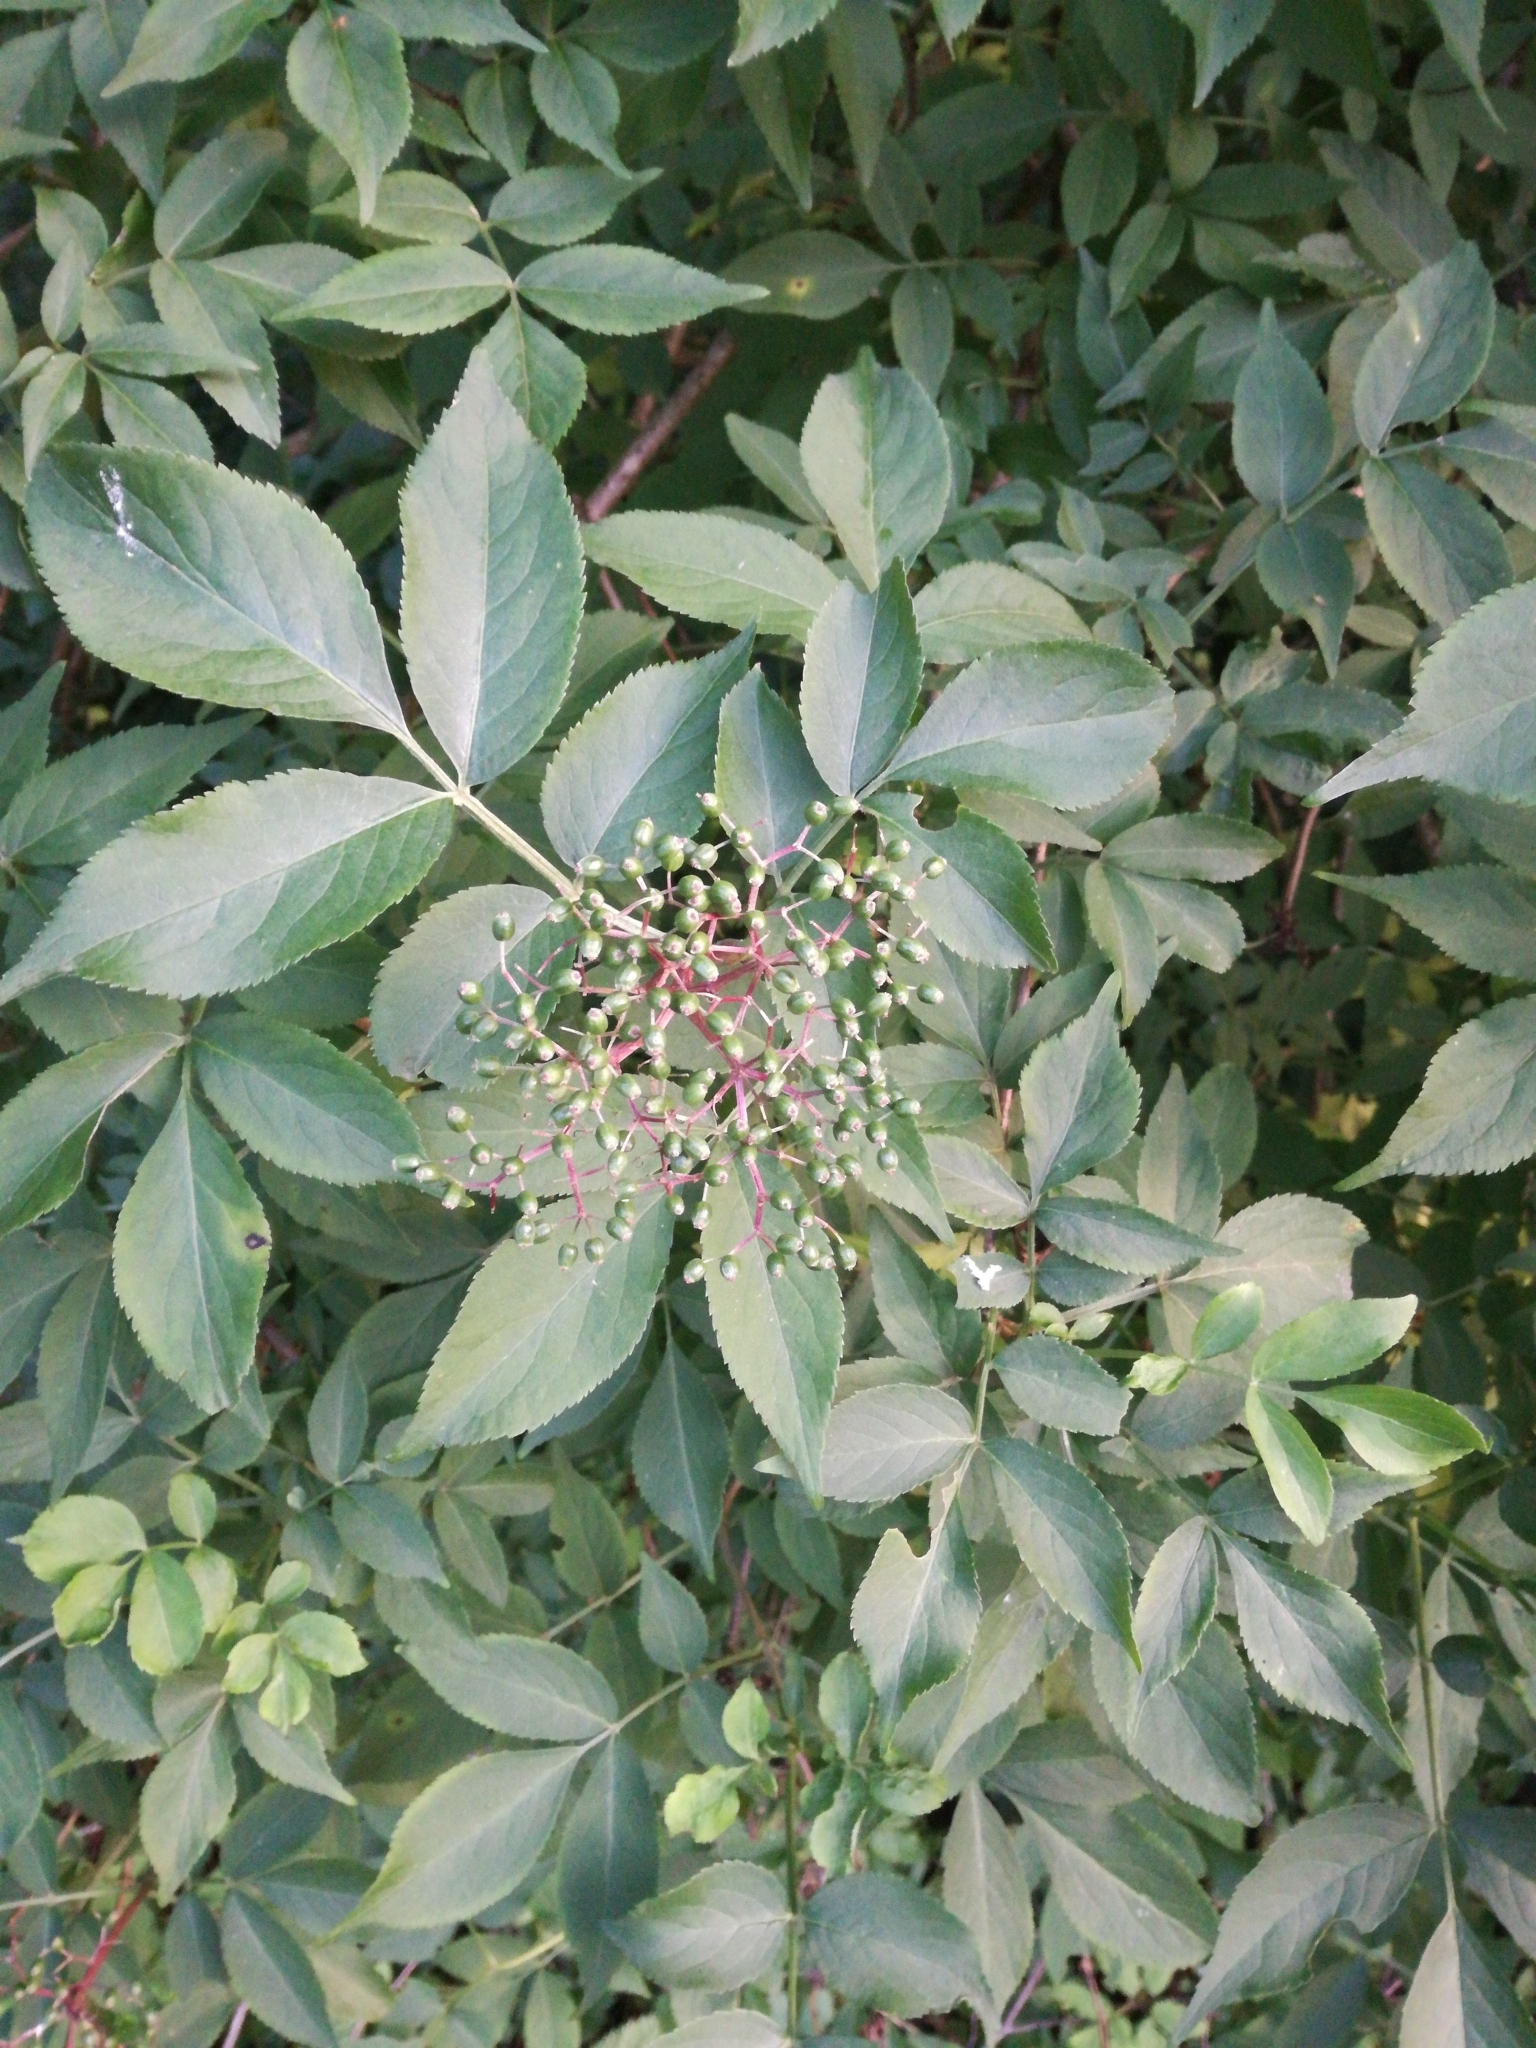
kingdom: Plantae
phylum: Tracheophyta
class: Magnoliopsida
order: Dipsacales
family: Viburnaceae
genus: Sambucus
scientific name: Sambucus nigra
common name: Elder
